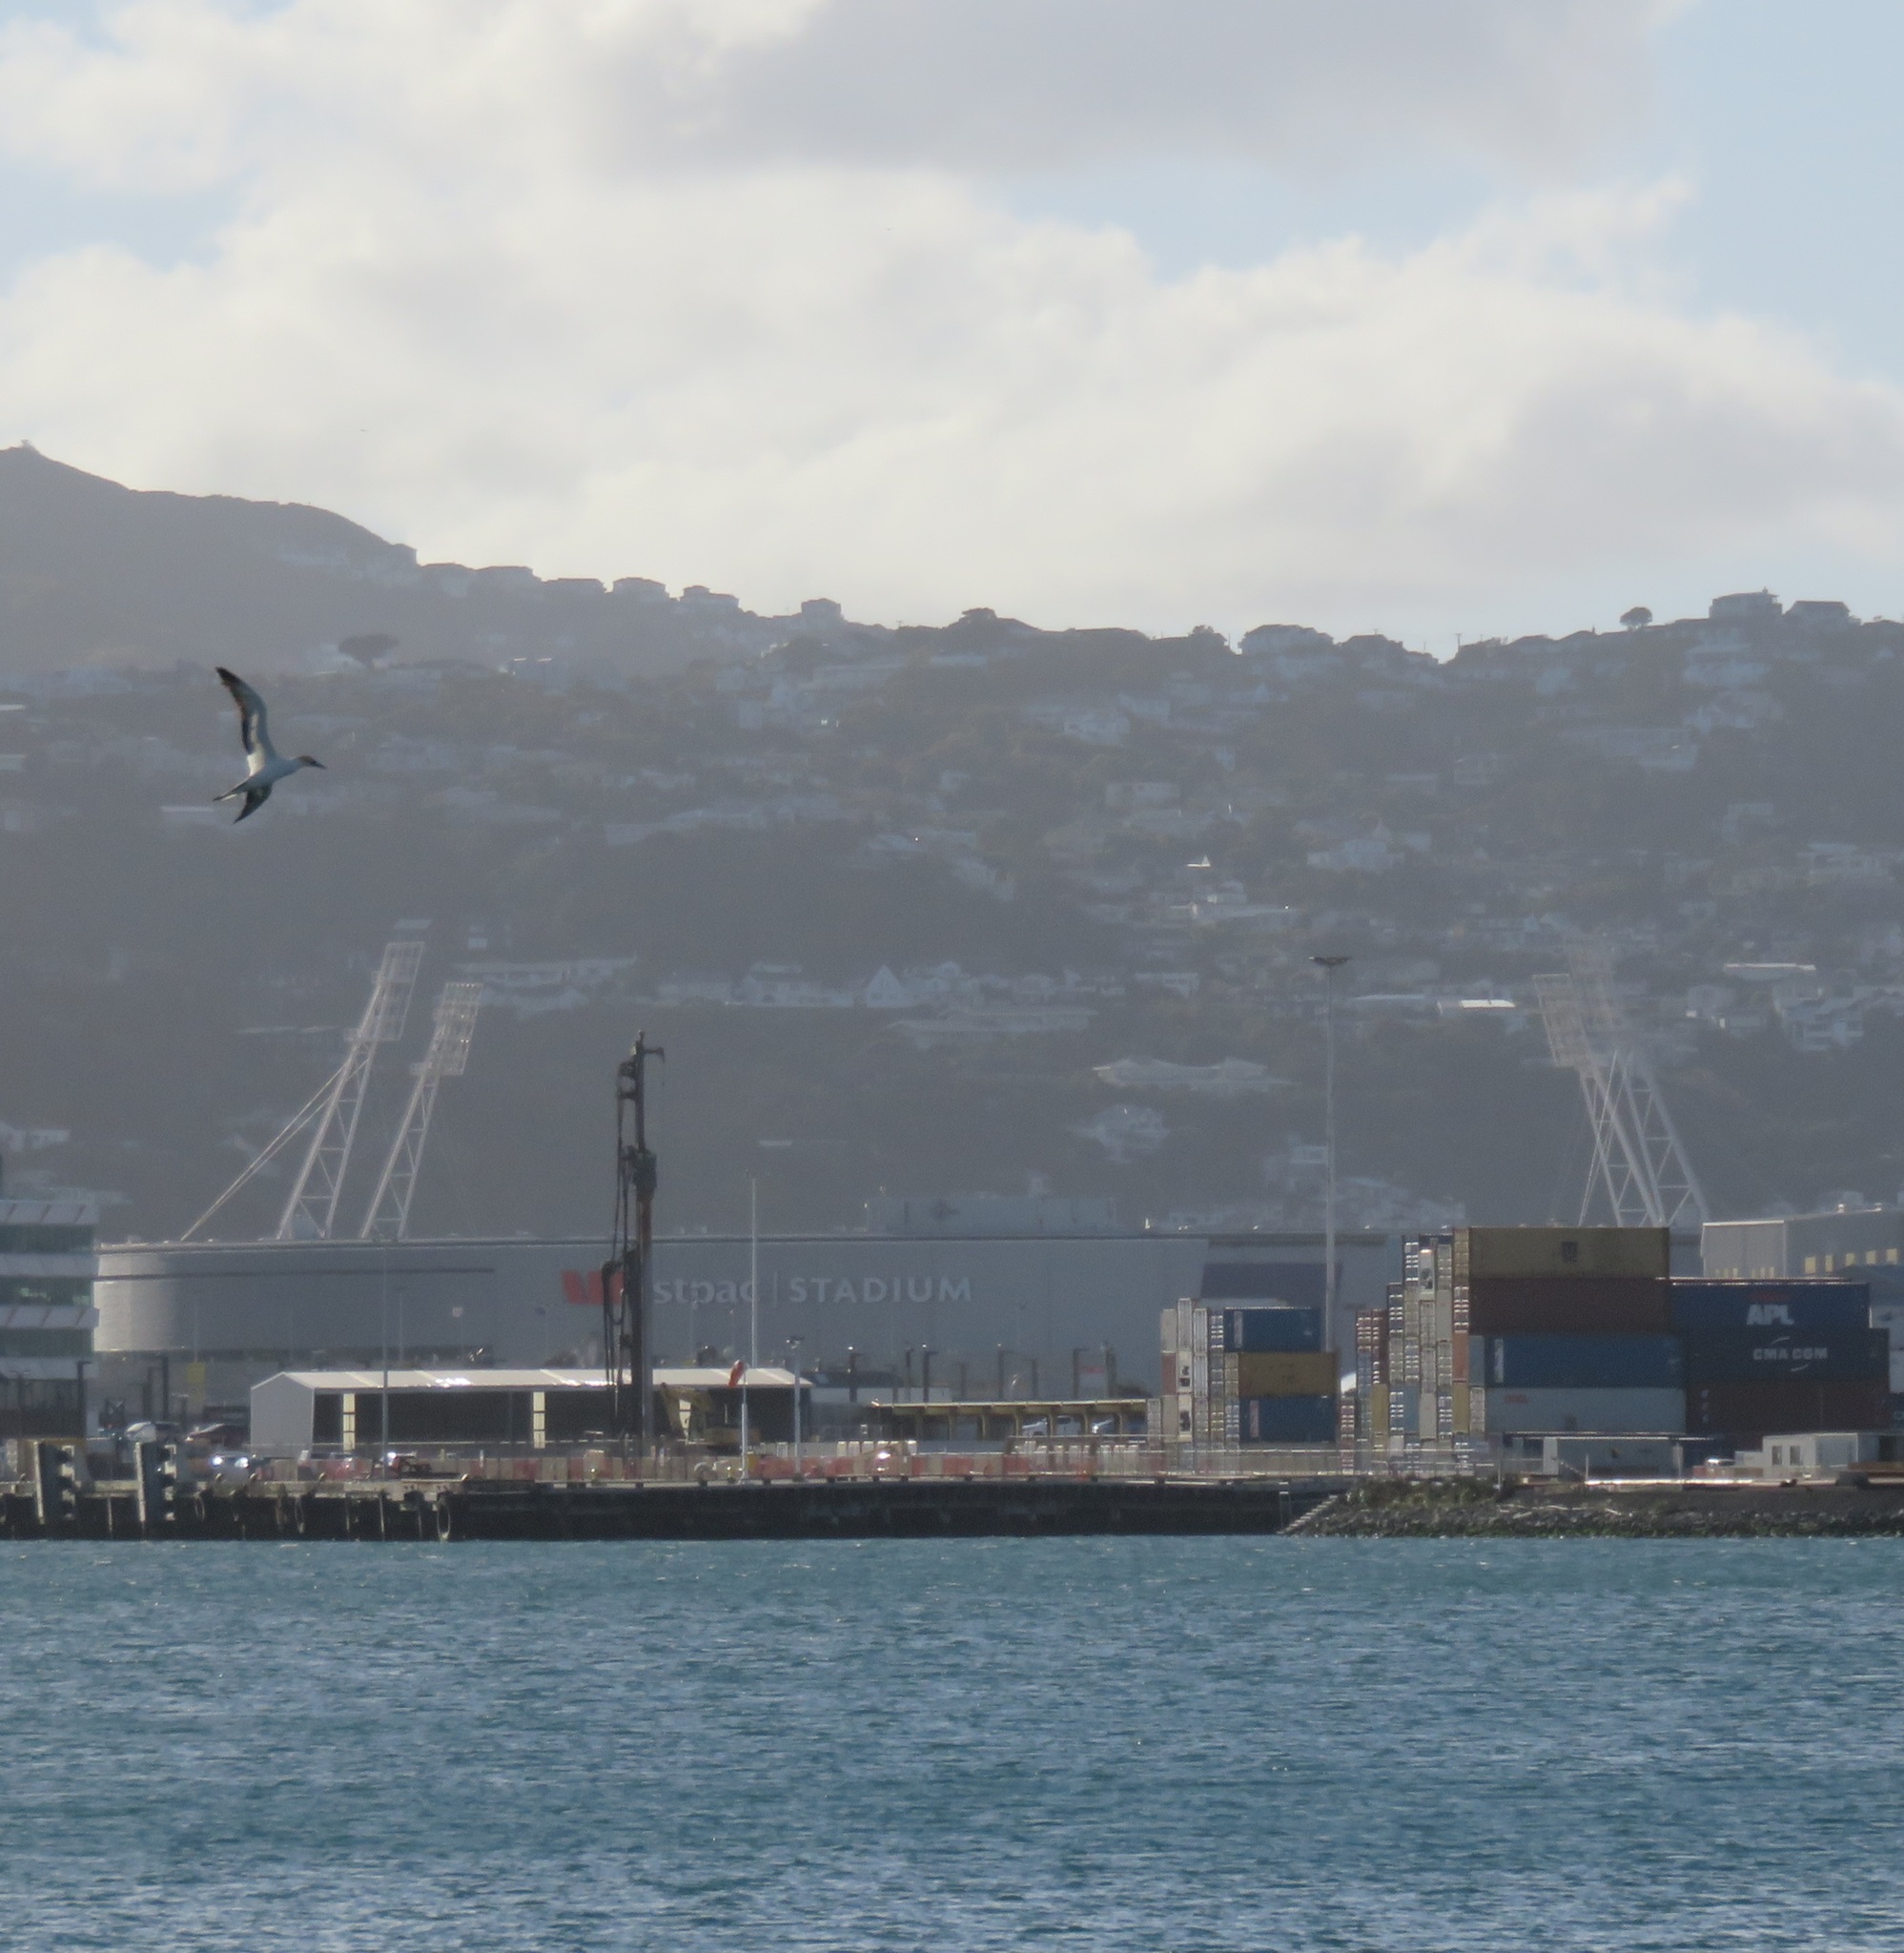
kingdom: Animalia
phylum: Chordata
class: Aves
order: Suliformes
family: Sulidae
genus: Morus
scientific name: Morus serrator
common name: Australasian gannet
